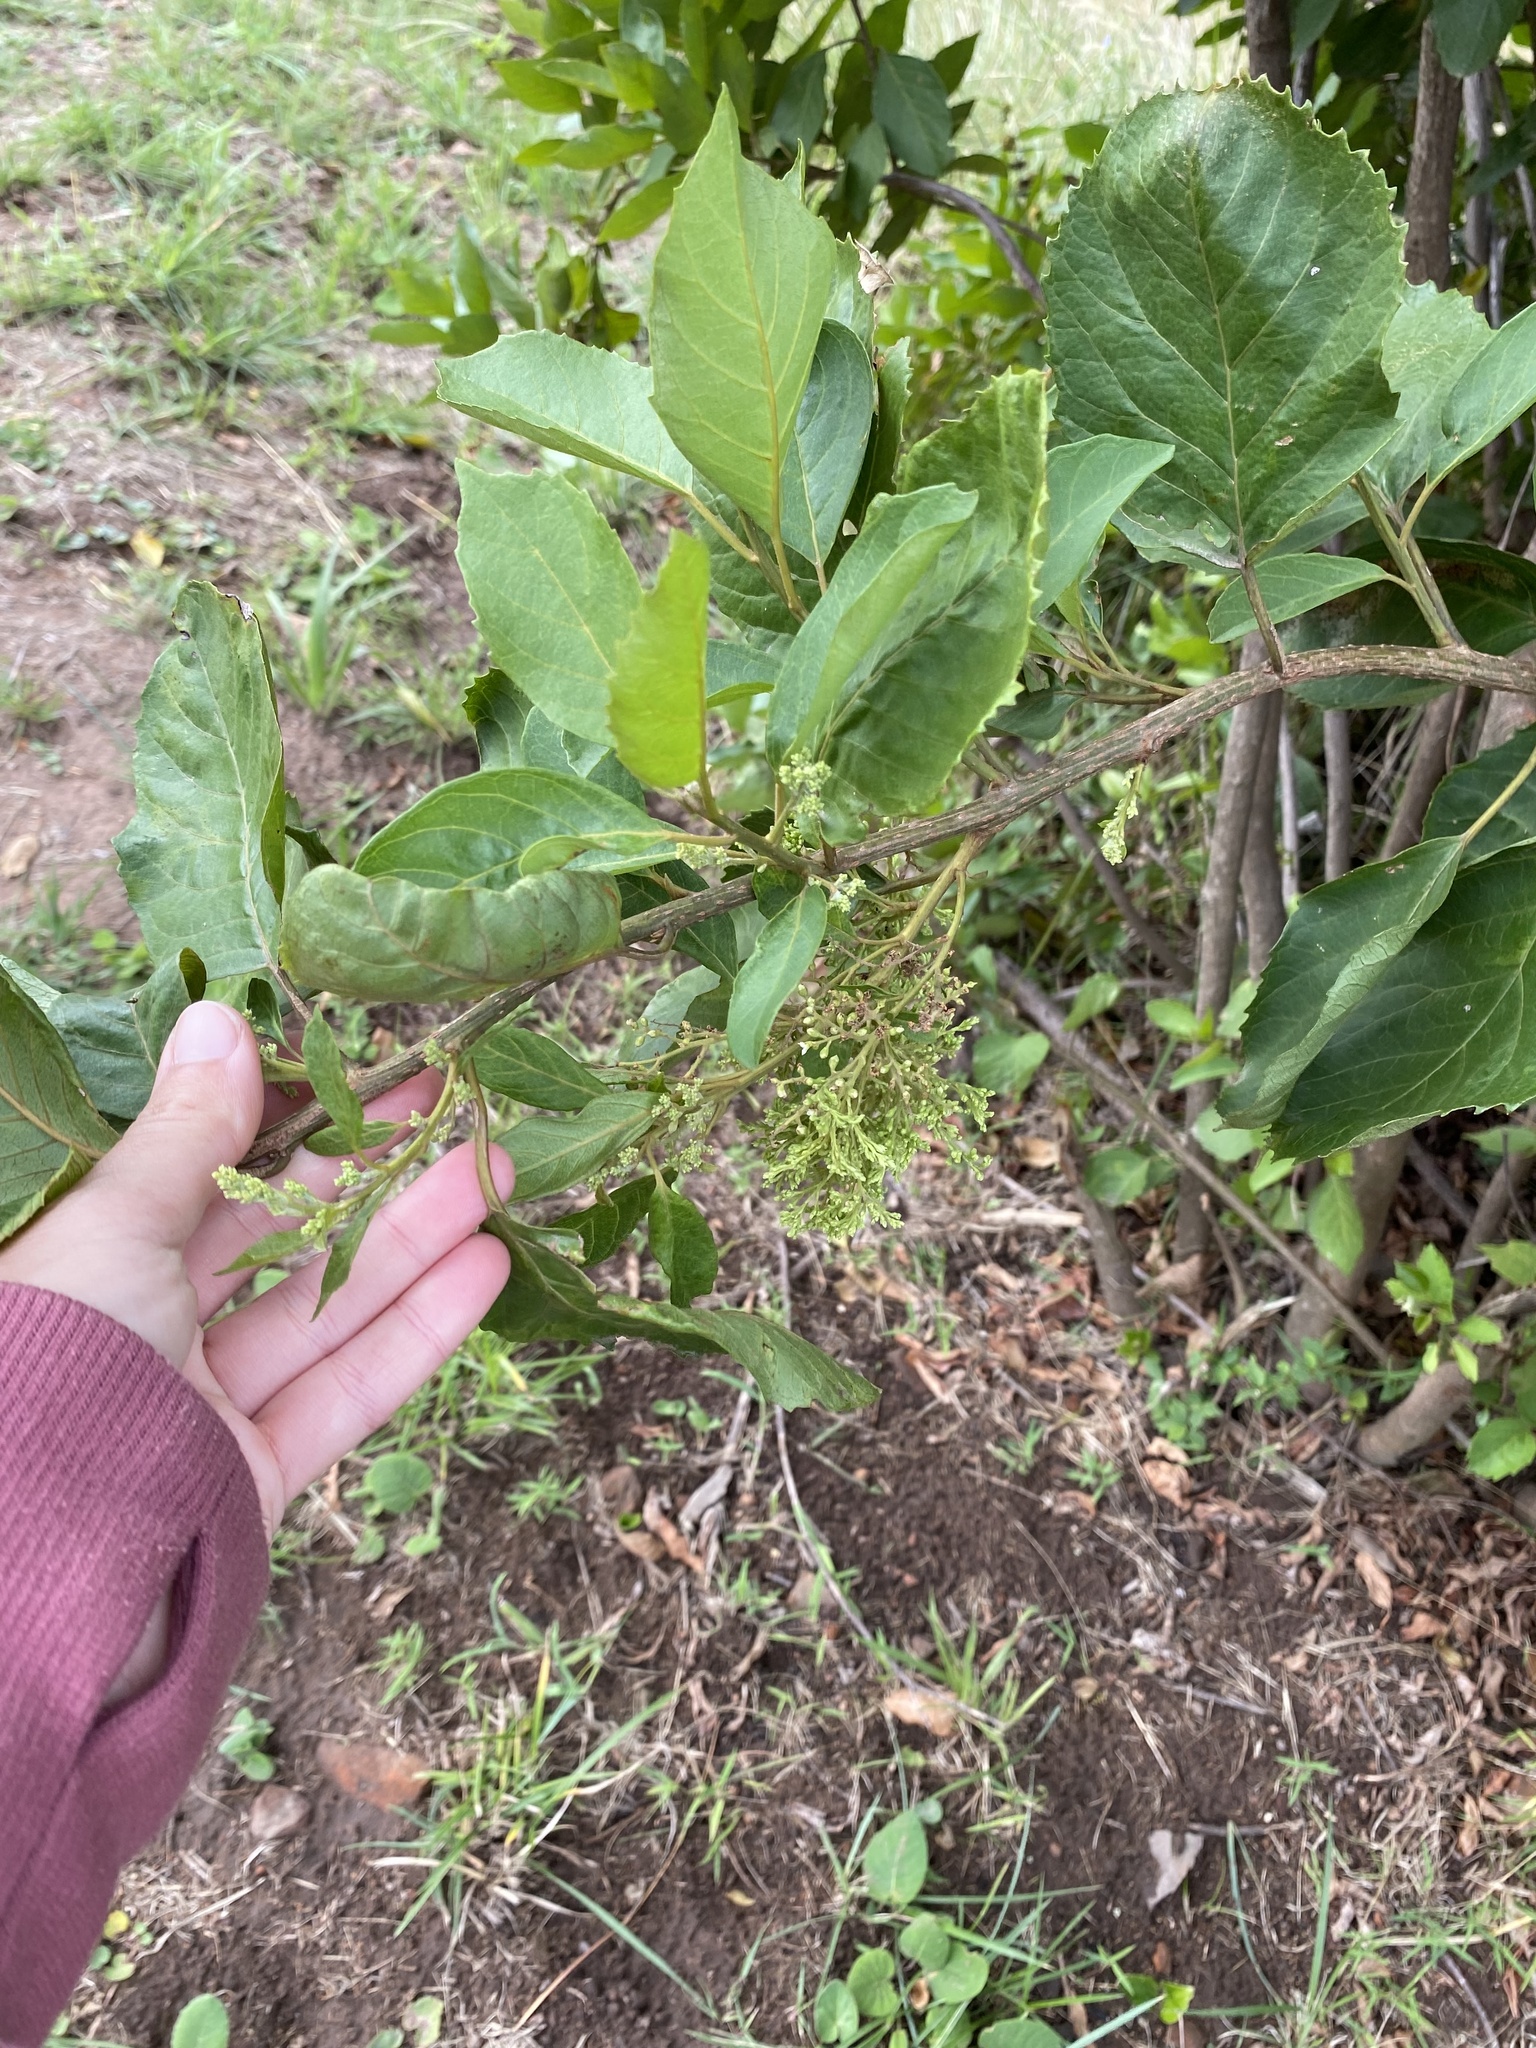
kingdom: Plantae
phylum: Tracheophyta
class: Magnoliopsida
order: Ericales
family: Primulaceae
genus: Maesa
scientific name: Maesa lanceolata
